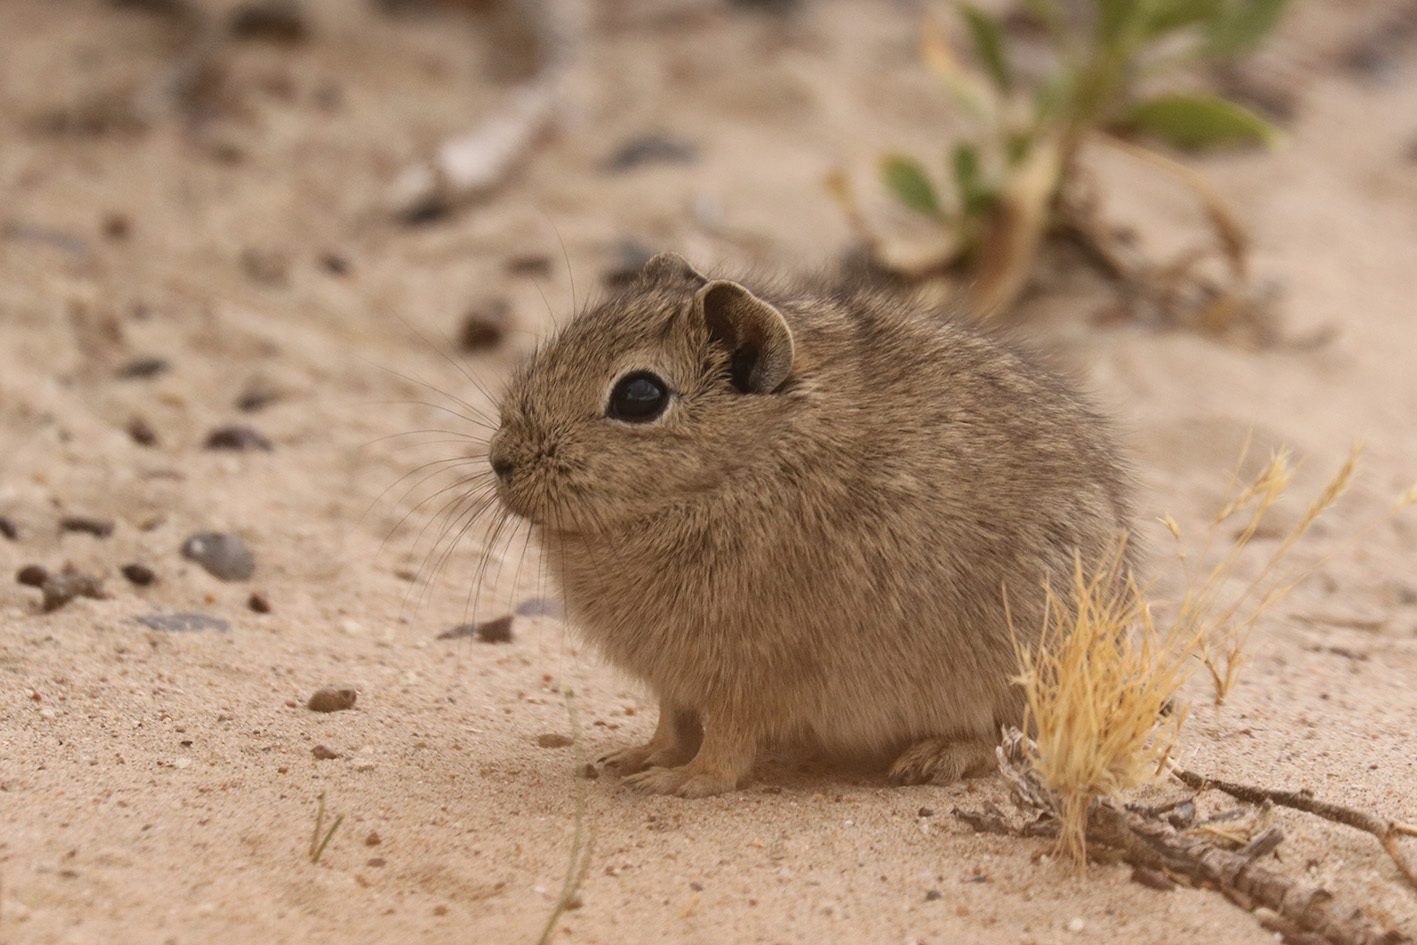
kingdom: Animalia
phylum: Chordata
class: Mammalia
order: Rodentia
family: Caviidae
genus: Microcavia
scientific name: Microcavia australis
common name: Southern mountain cavy
